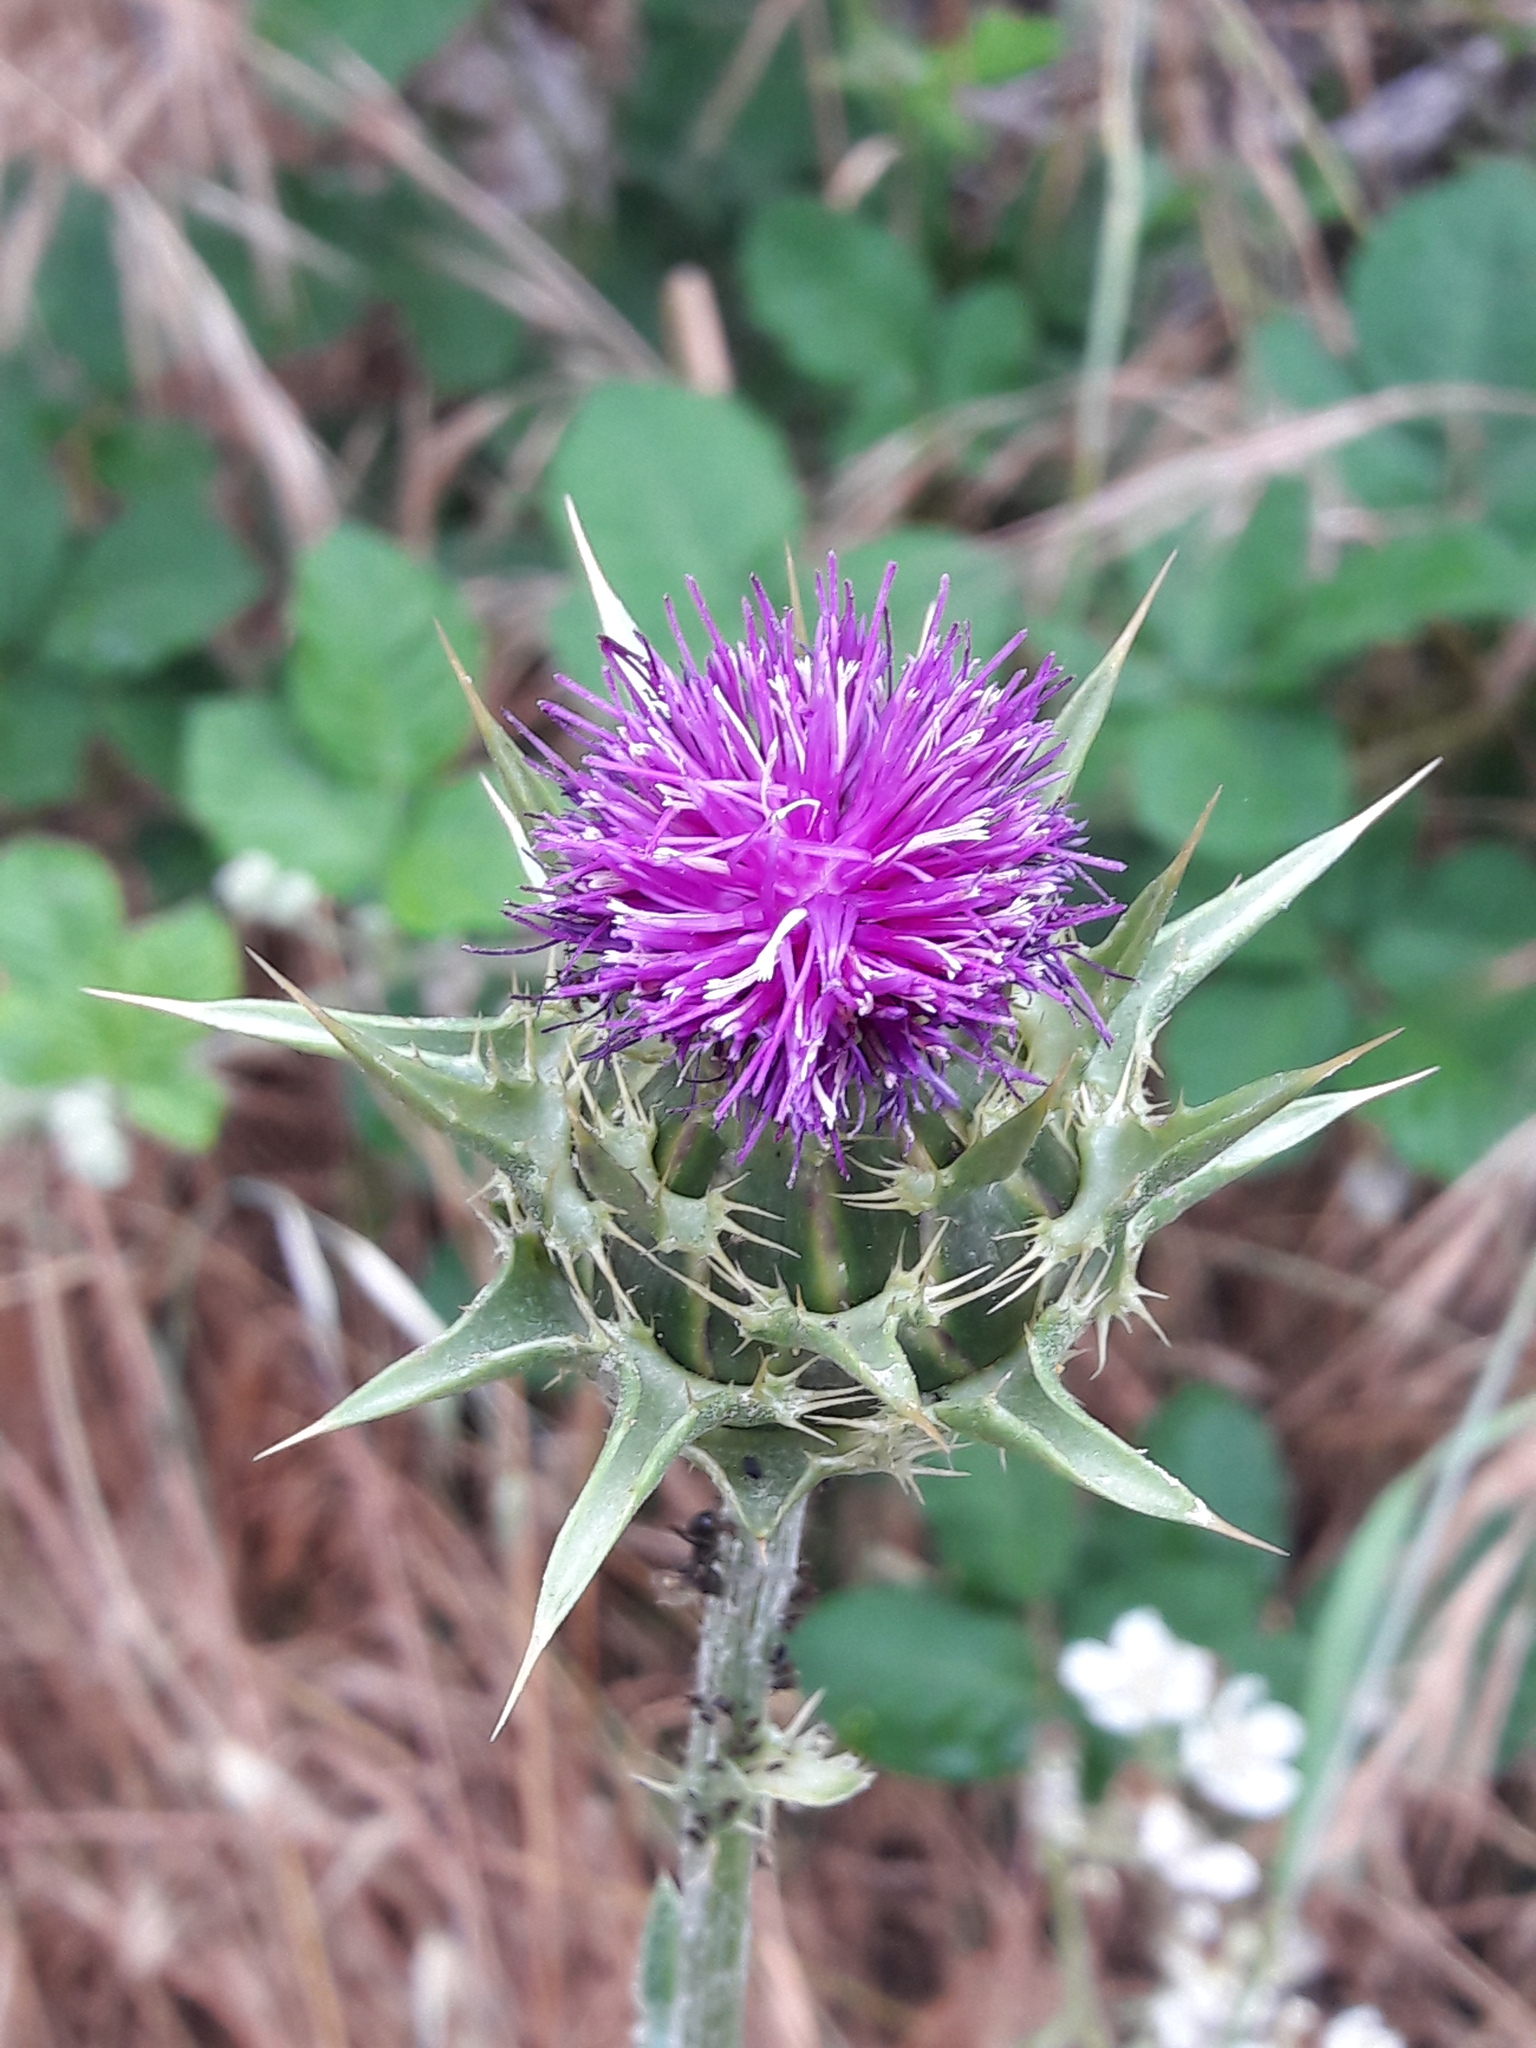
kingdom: Plantae
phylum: Tracheophyta
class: Magnoliopsida
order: Asterales
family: Asteraceae
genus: Silybum
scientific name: Silybum marianum
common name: Milk thistle
